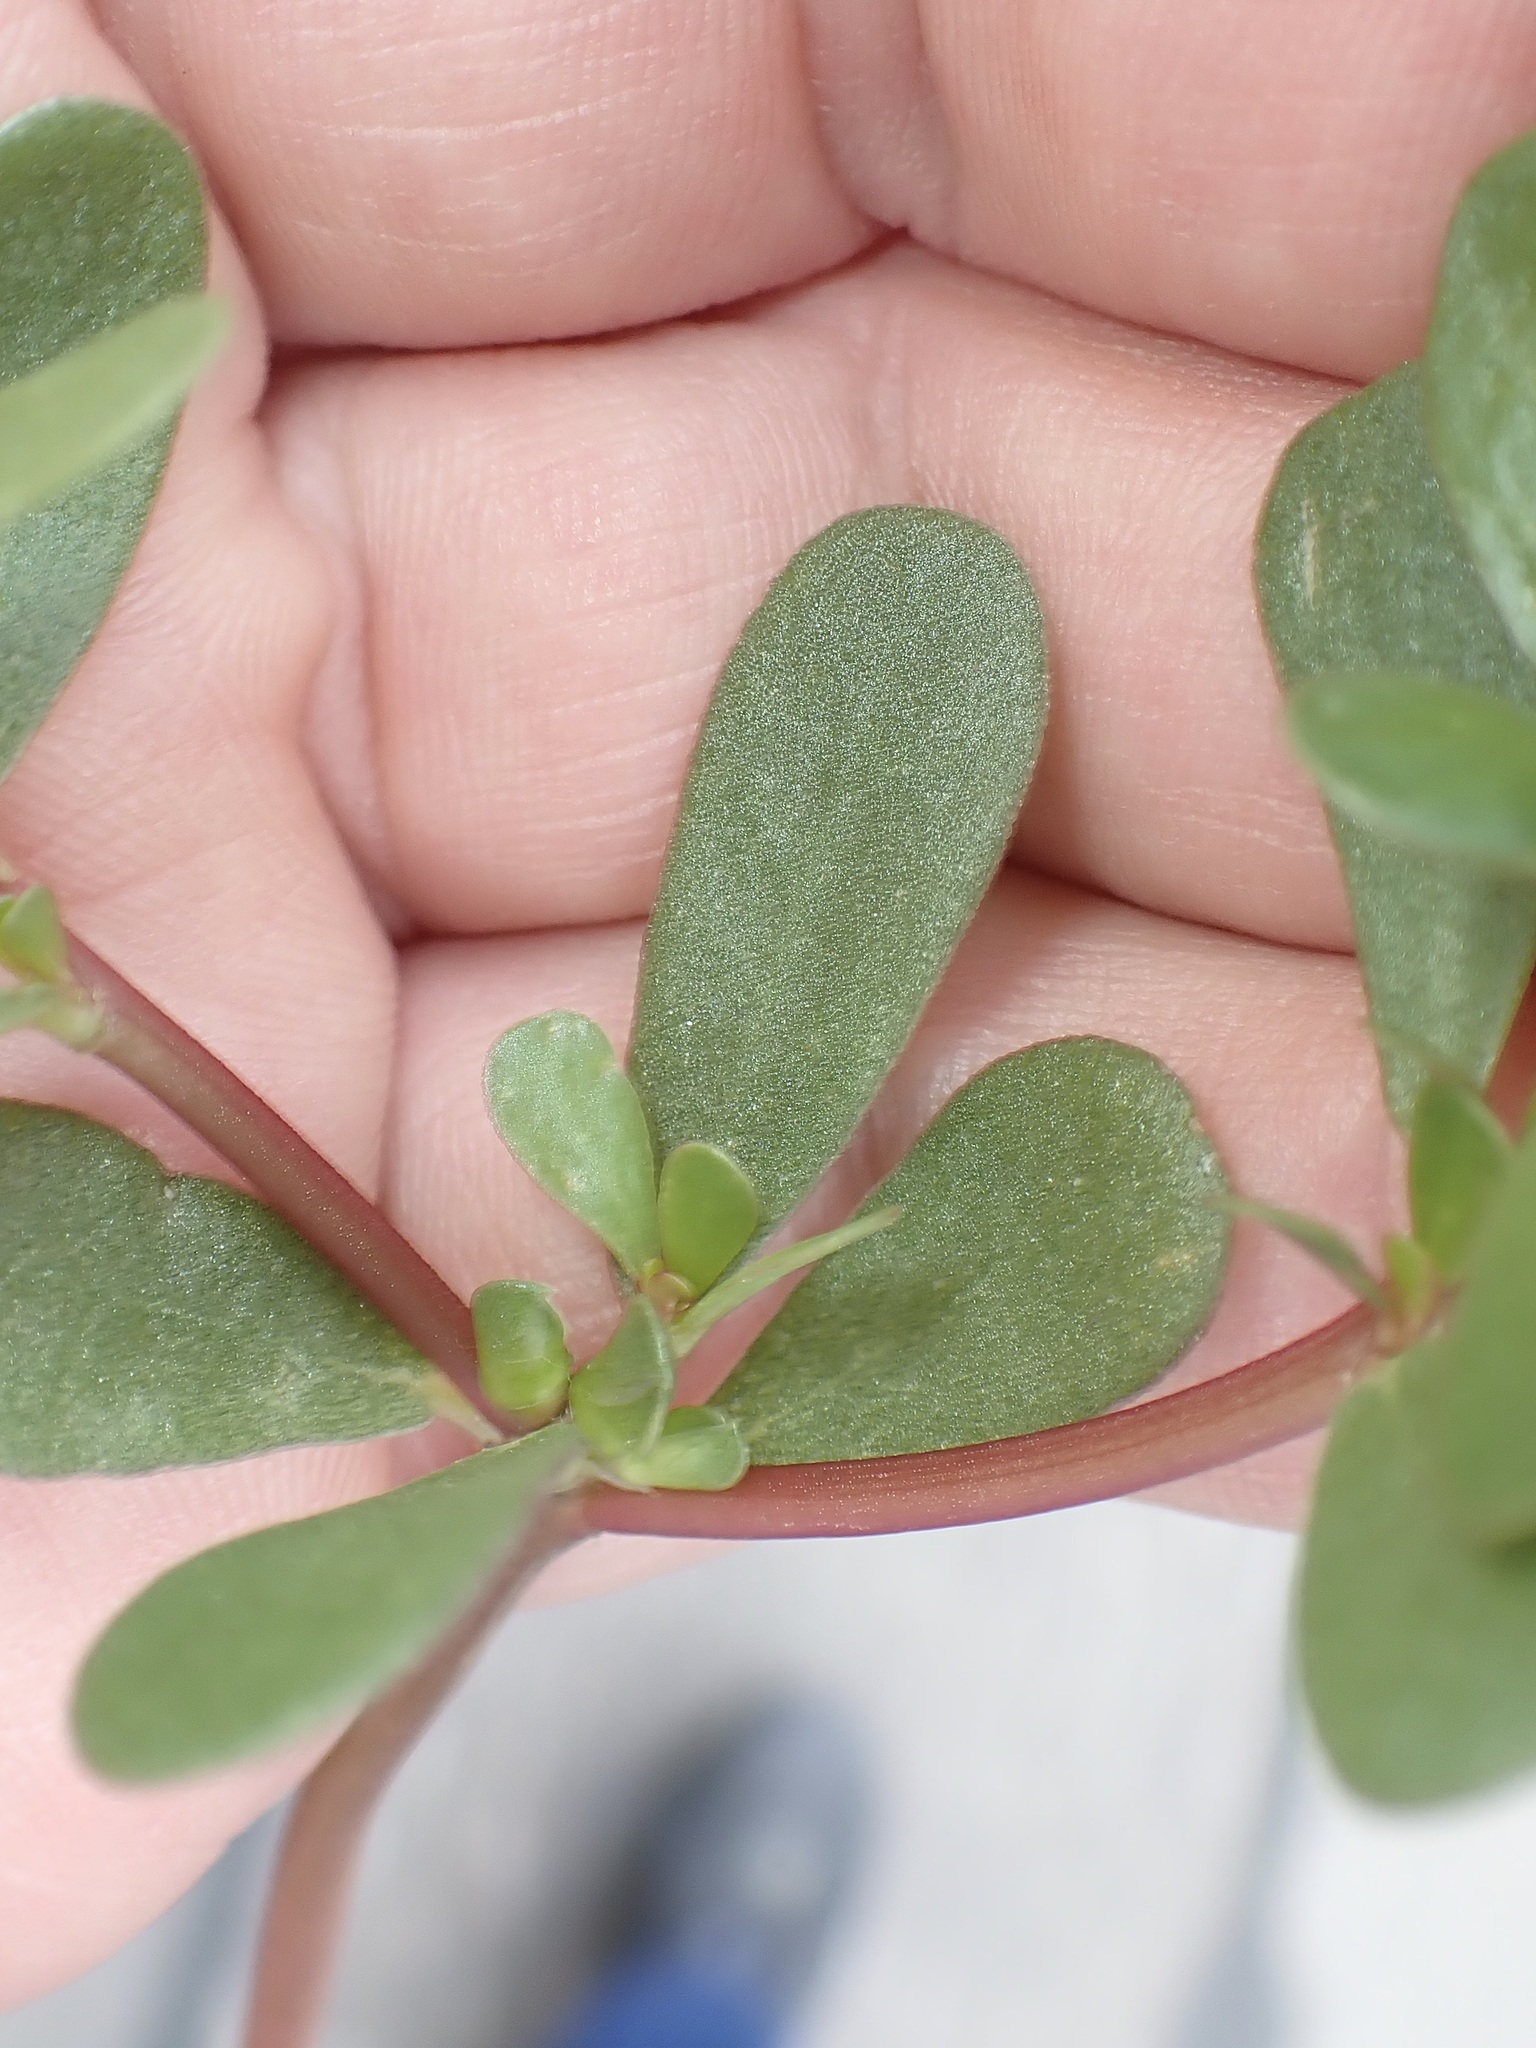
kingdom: Plantae
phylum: Tracheophyta
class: Magnoliopsida
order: Caryophyllales
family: Portulacaceae
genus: Portulaca
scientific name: Portulaca oleracea
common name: Common purslane
